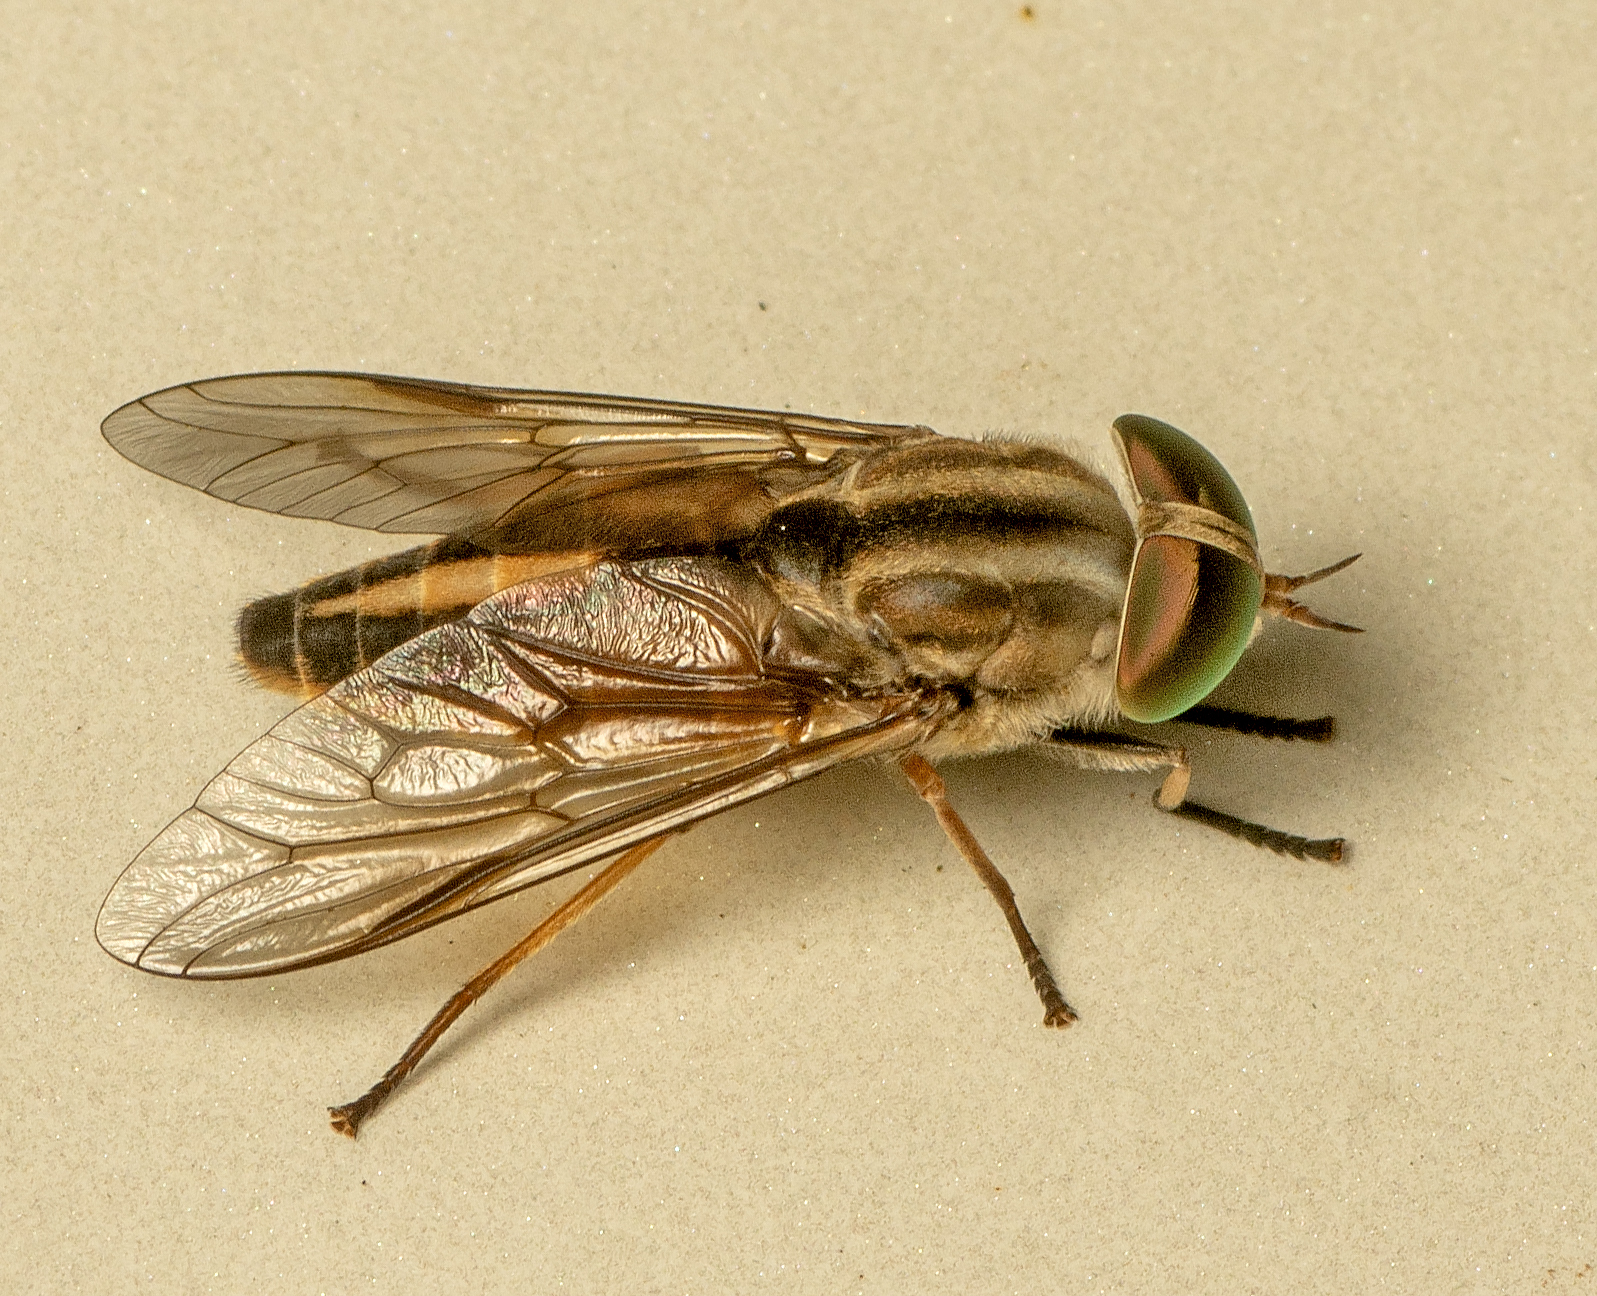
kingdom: Animalia
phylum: Arthropoda
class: Insecta
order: Diptera
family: Tabanidae
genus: Tabanus
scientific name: Tabanus strangmannii
